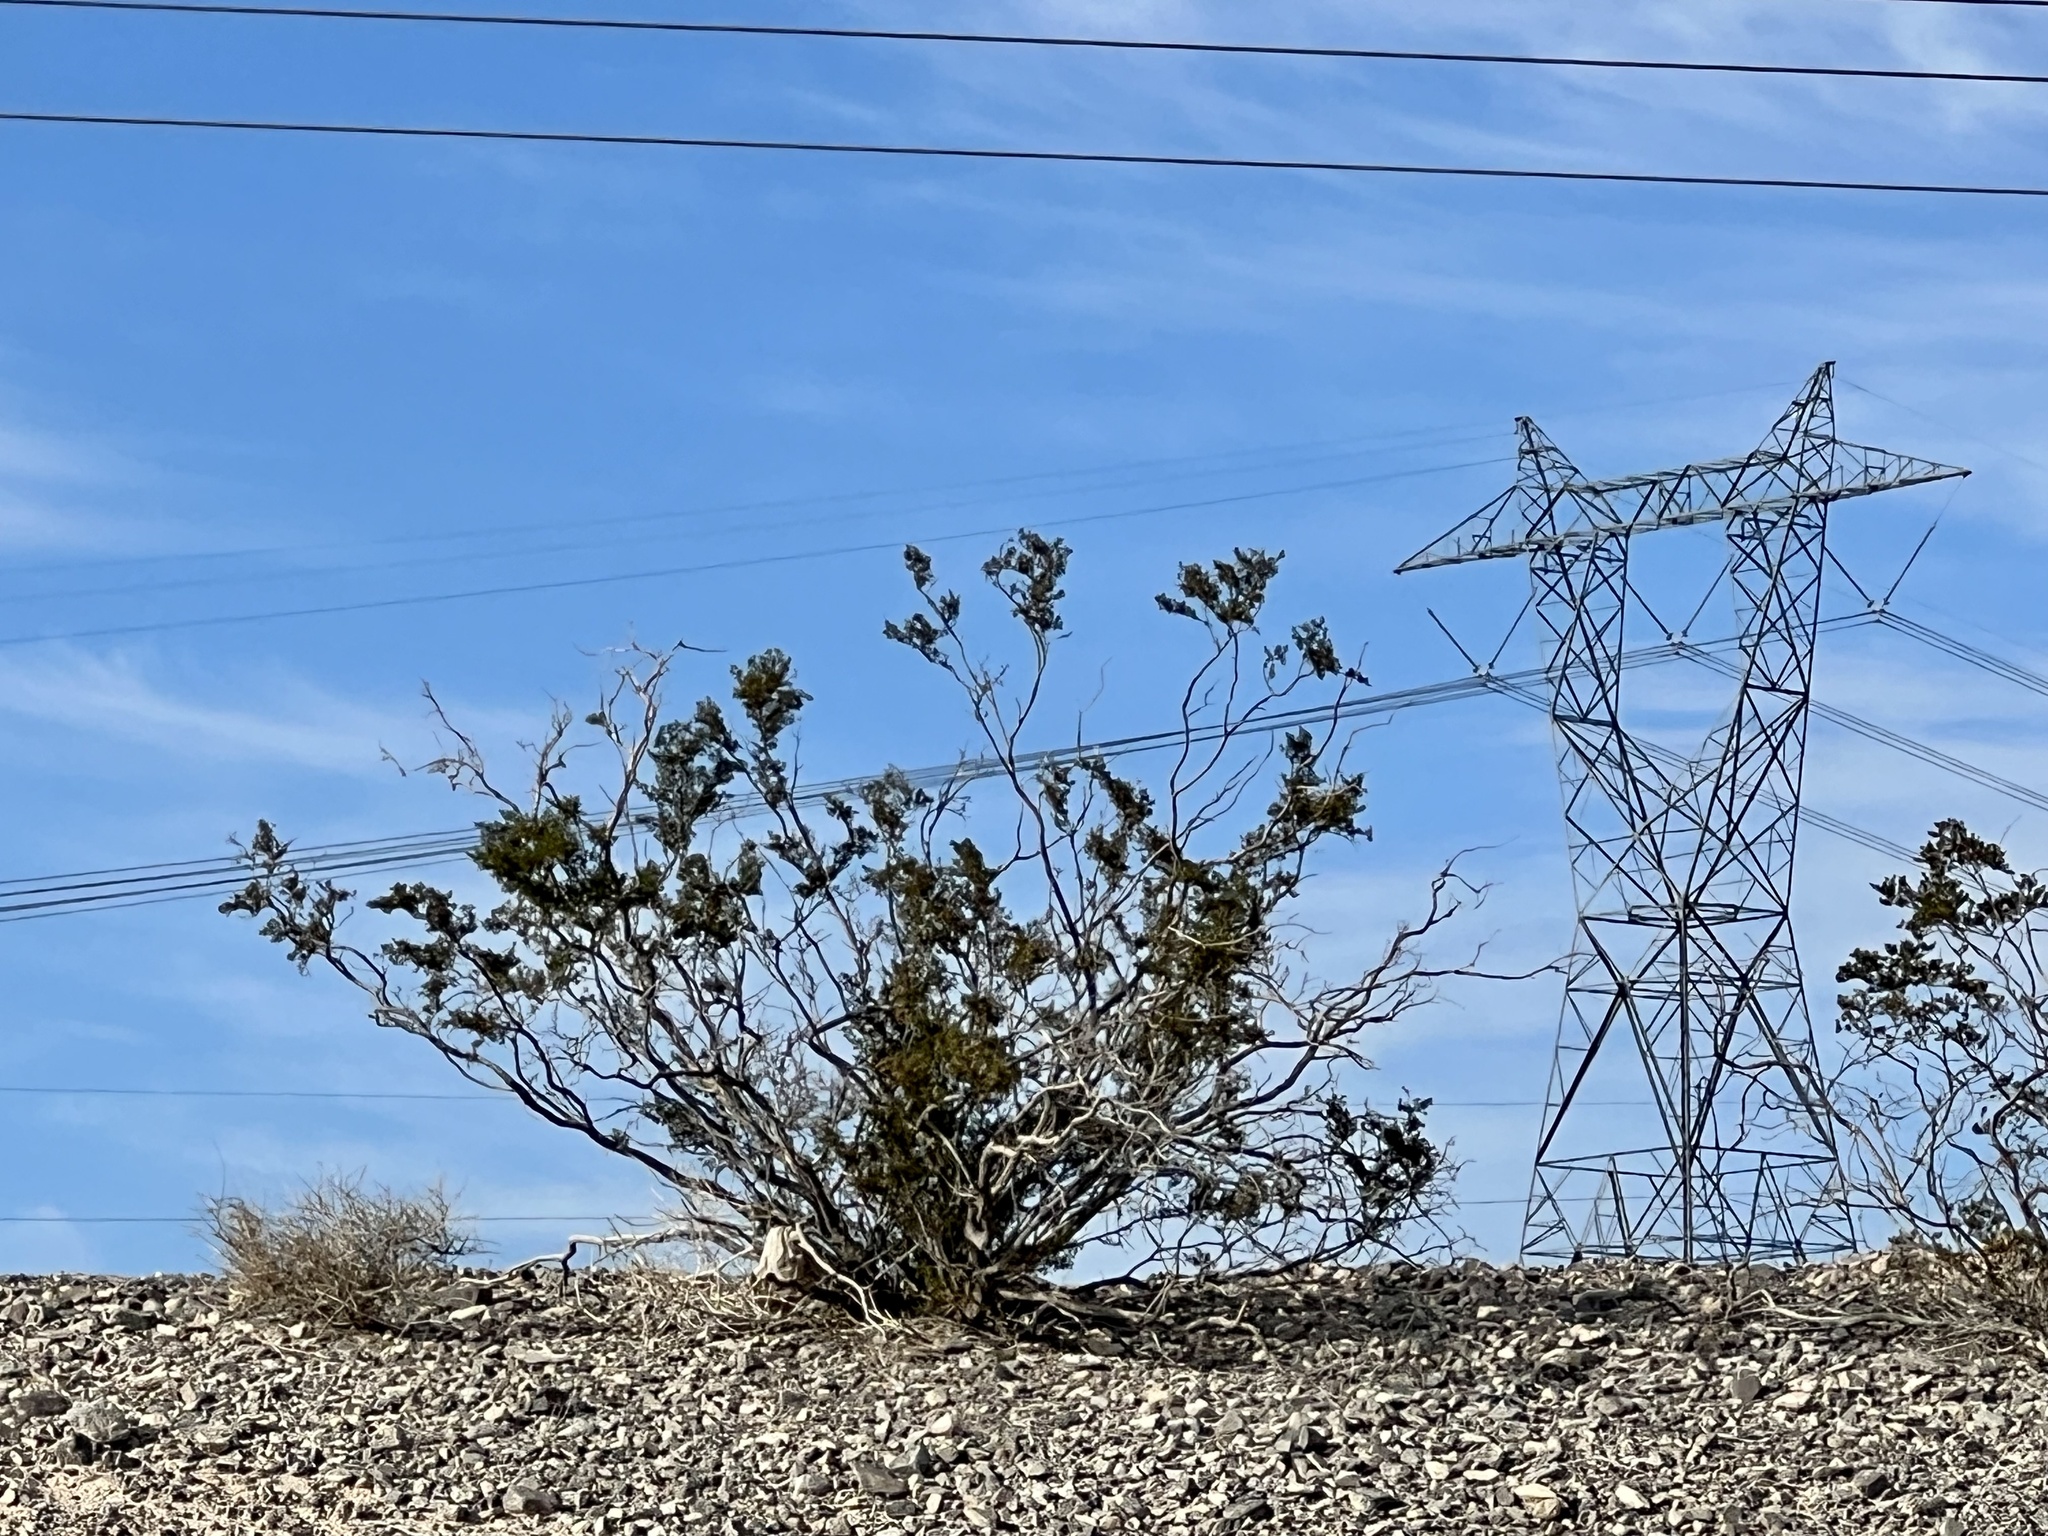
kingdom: Plantae
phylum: Tracheophyta
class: Magnoliopsida
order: Zygophyllales
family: Zygophyllaceae
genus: Larrea
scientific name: Larrea tridentata
